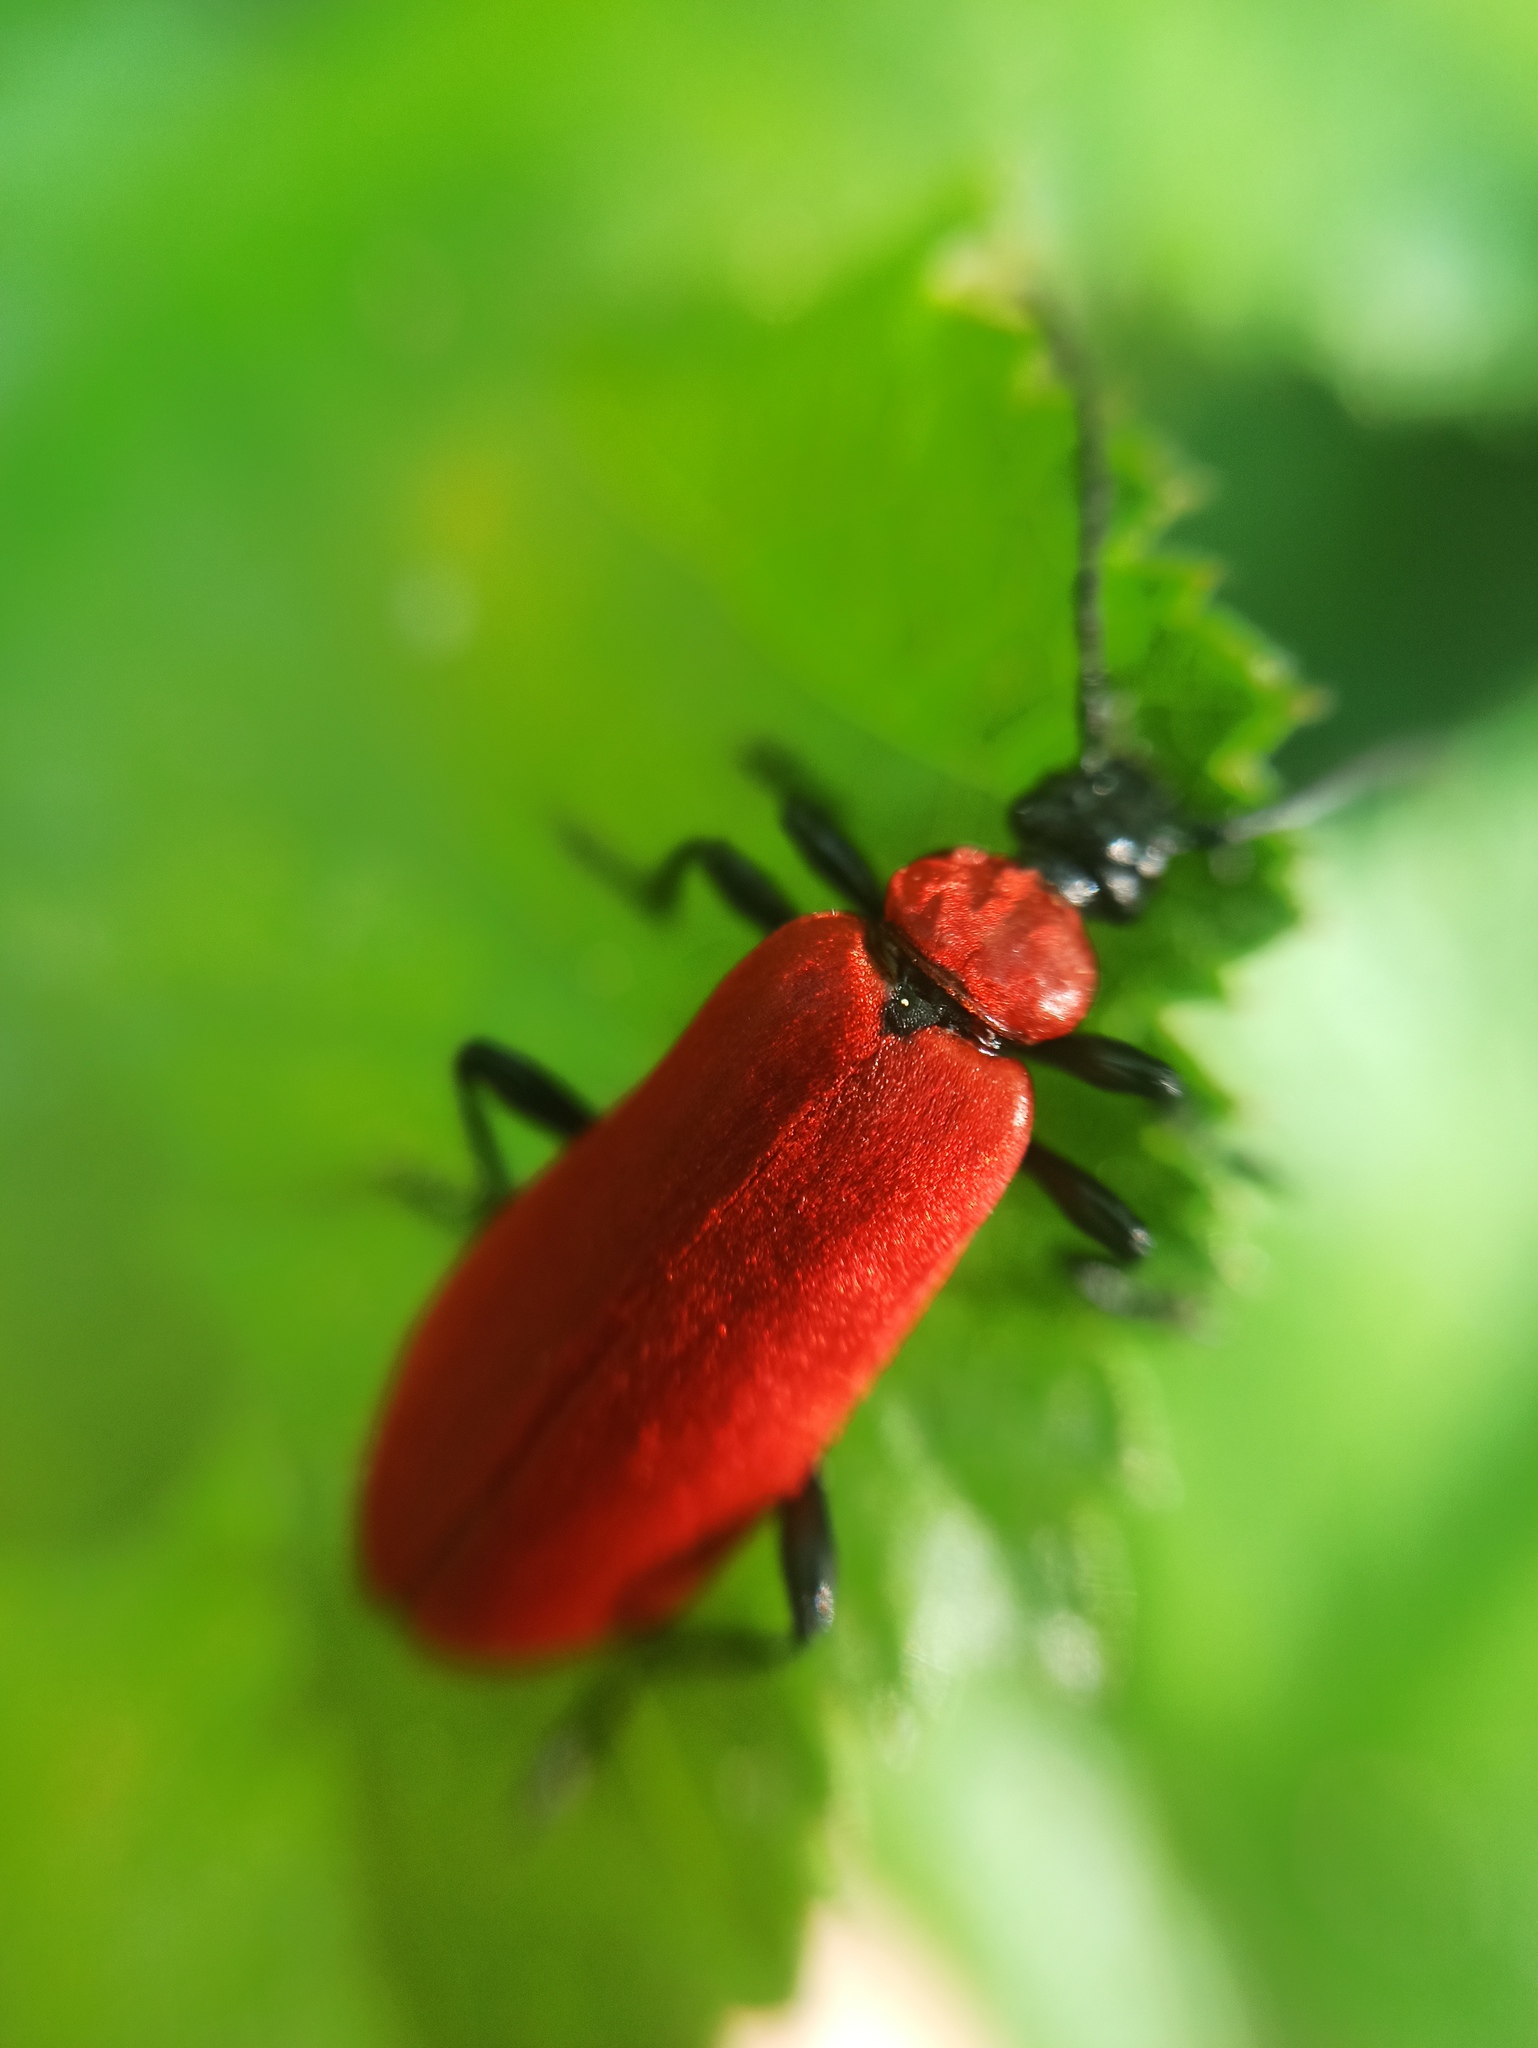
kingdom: Animalia
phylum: Arthropoda
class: Insecta
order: Coleoptera
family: Pyrochroidae
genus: Pyrochroa
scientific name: Pyrochroa coccinea
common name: Black-headed cardinal beetle
